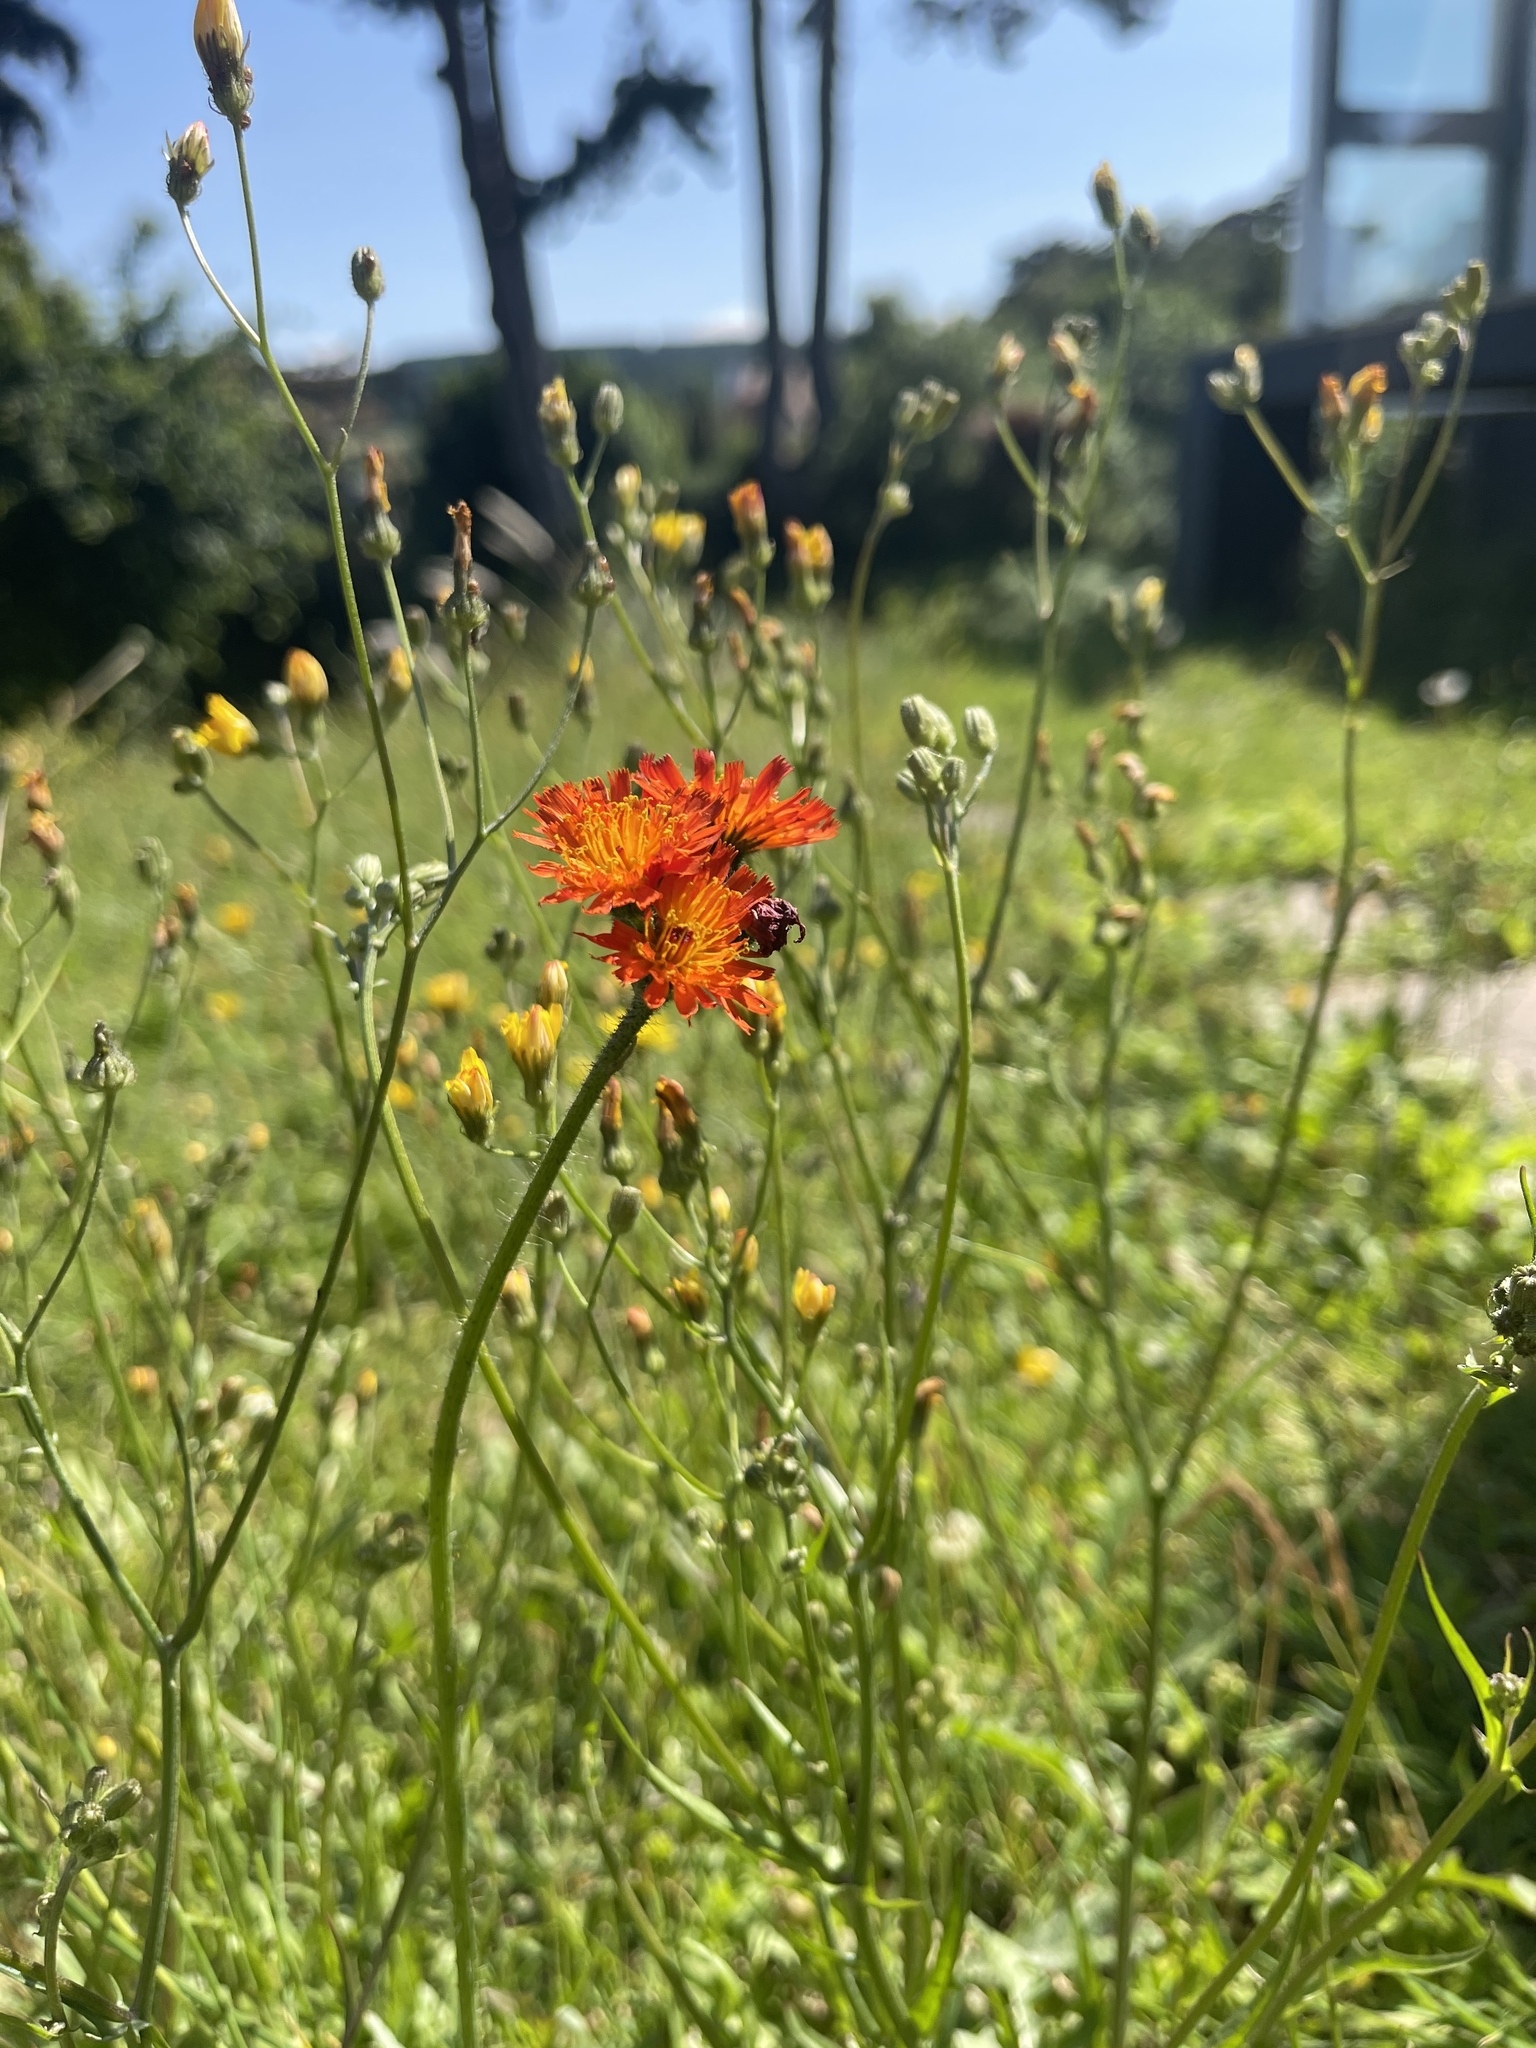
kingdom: Plantae
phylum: Tracheophyta
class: Magnoliopsida
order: Asterales
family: Asteraceae
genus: Pilosella
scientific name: Pilosella aurantiaca
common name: Fox-and-cubs
